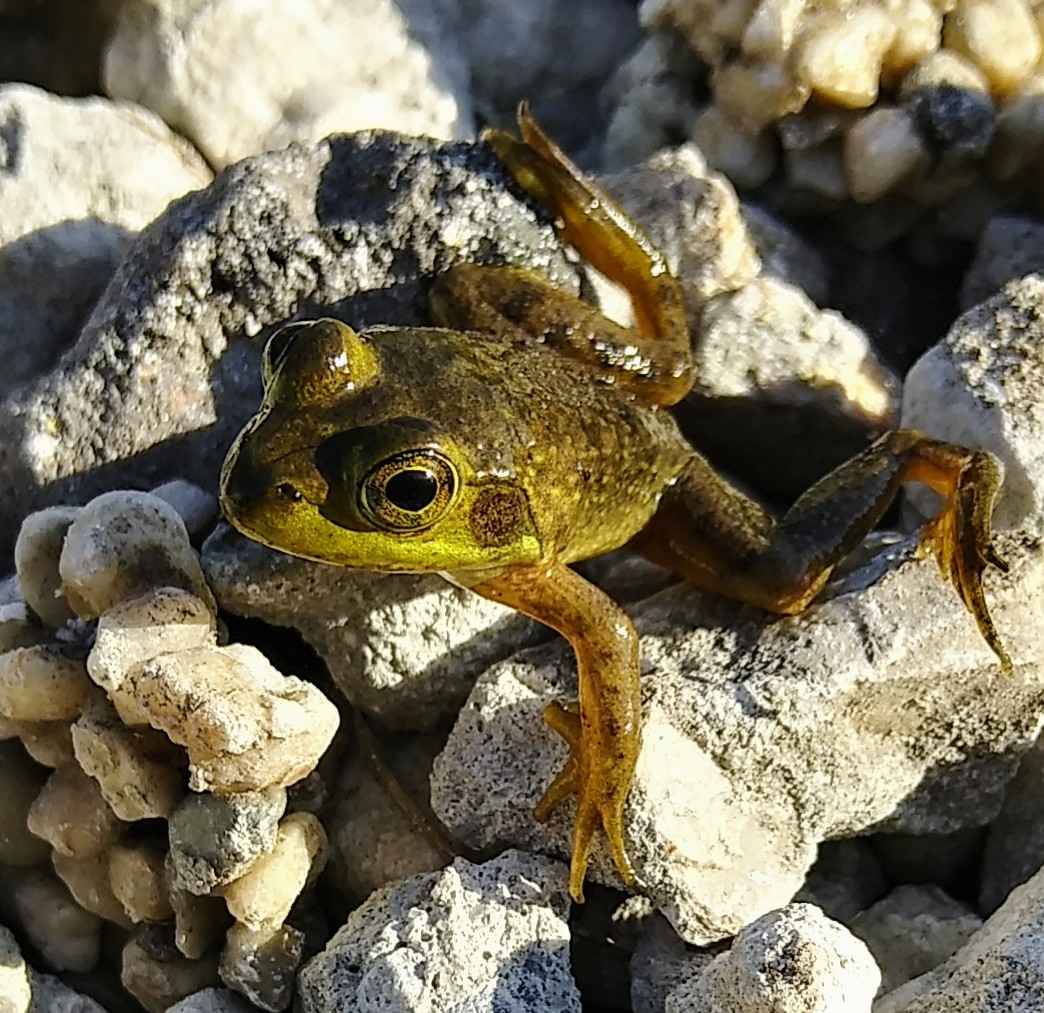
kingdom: Animalia
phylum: Chordata
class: Amphibia
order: Anura
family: Ranidae
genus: Lithobates
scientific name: Lithobates catesbeianus
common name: American bullfrog
